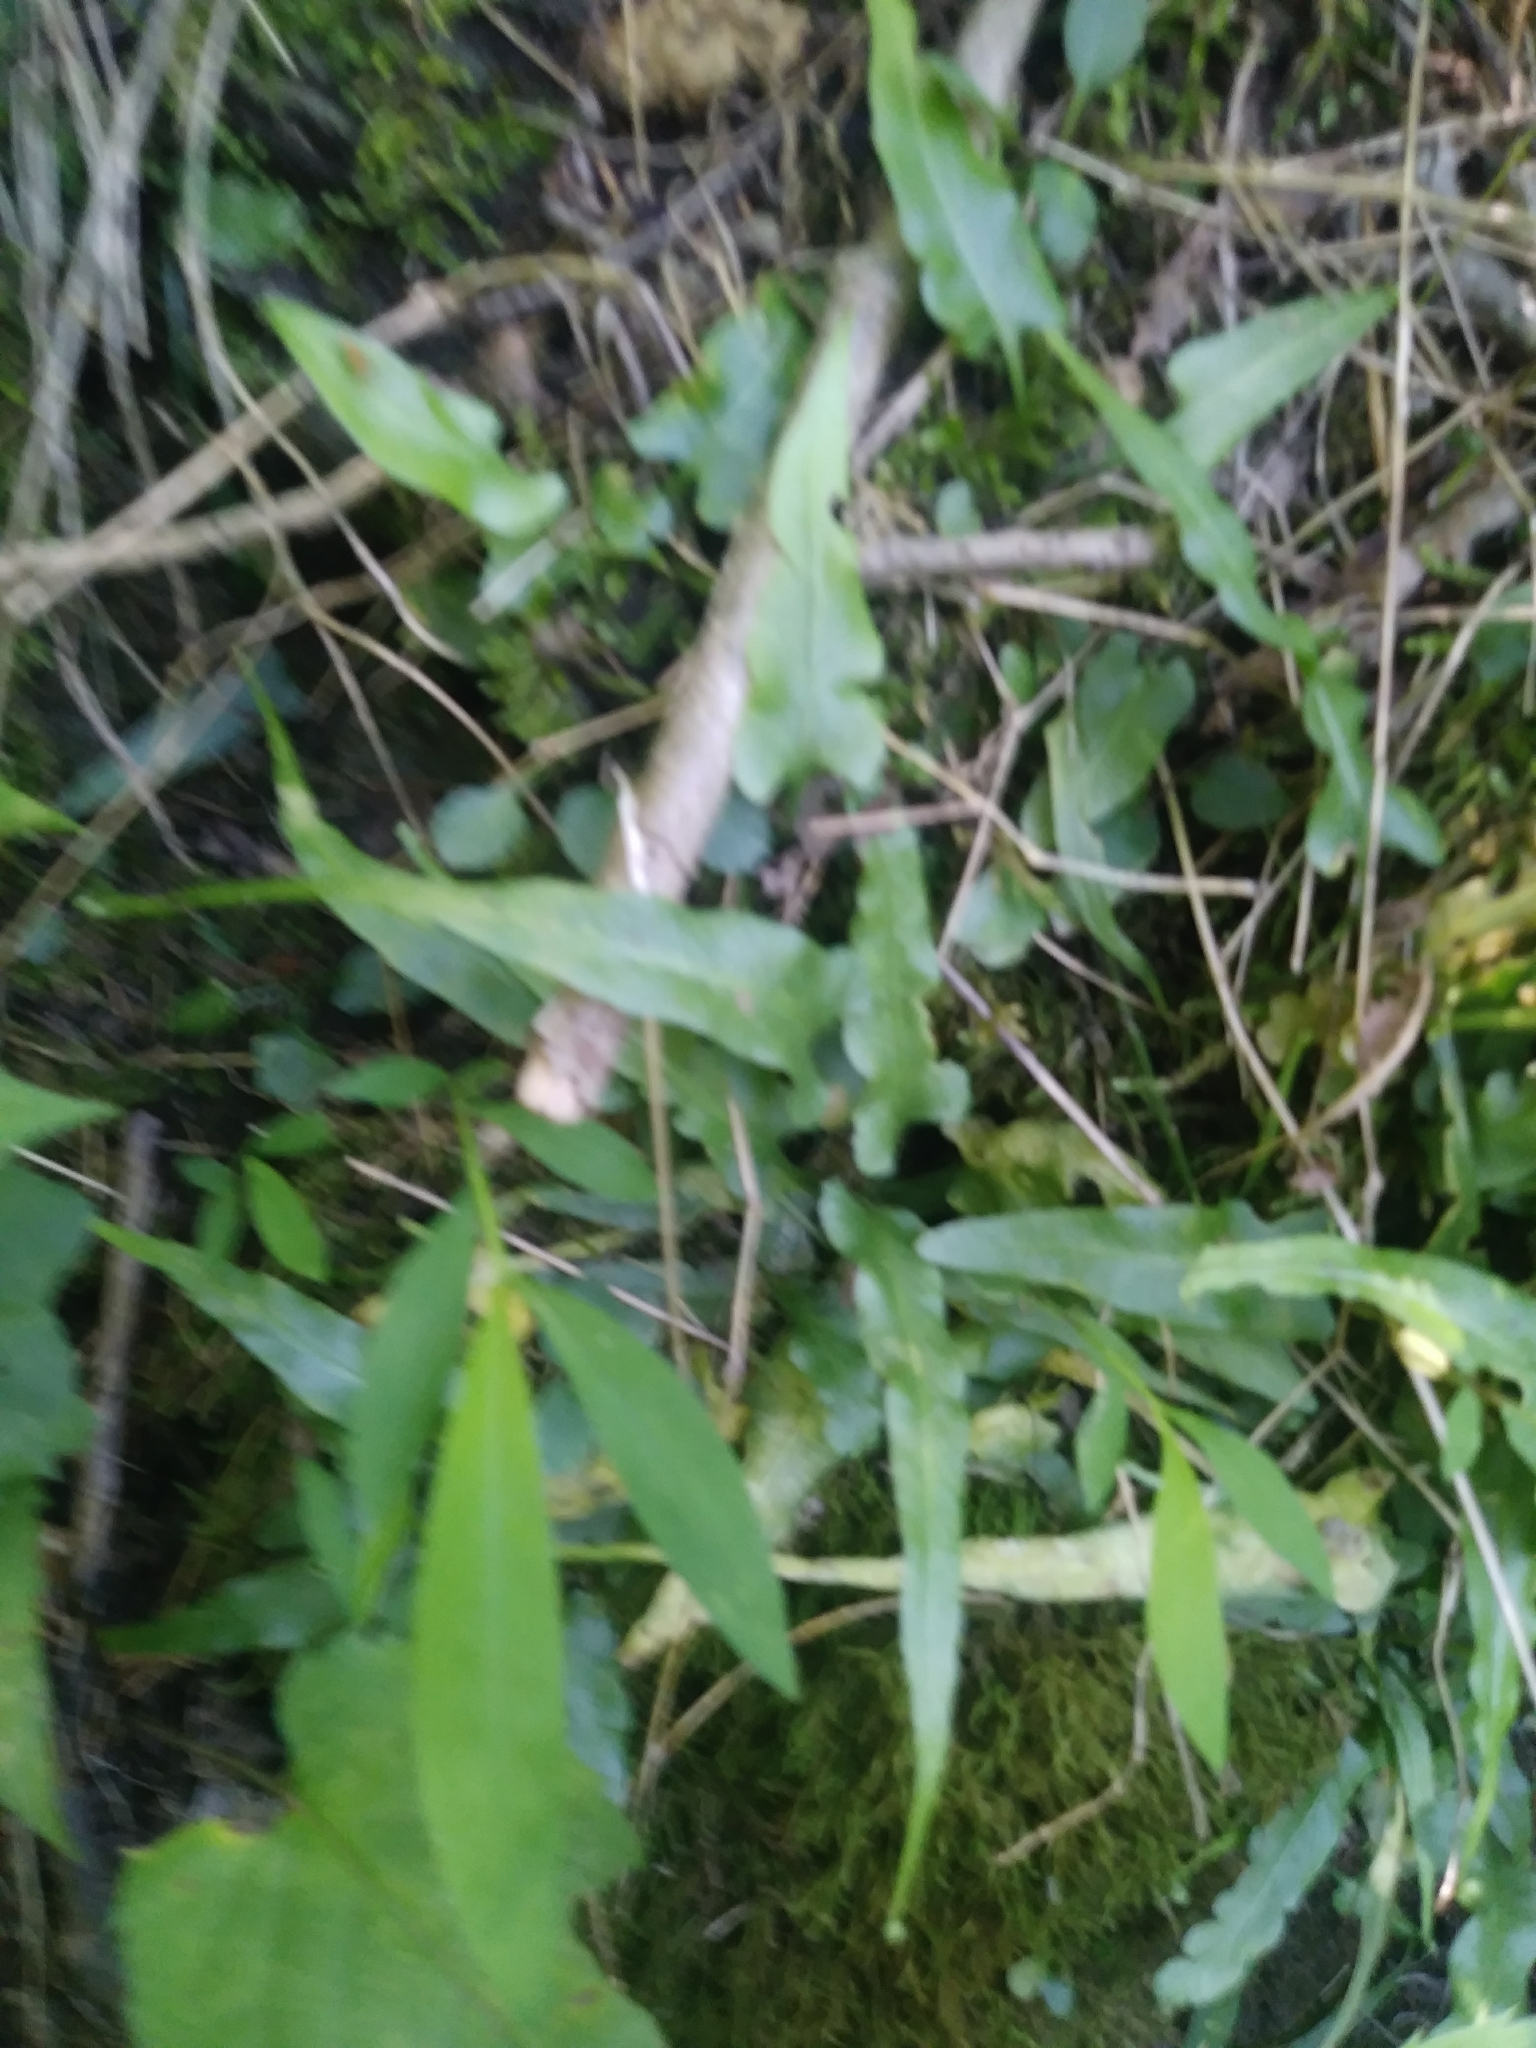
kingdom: Plantae
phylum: Tracheophyta
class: Polypodiopsida
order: Polypodiales
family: Aspleniaceae
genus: Asplenium
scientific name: Asplenium rhizophyllum
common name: Walking fern
